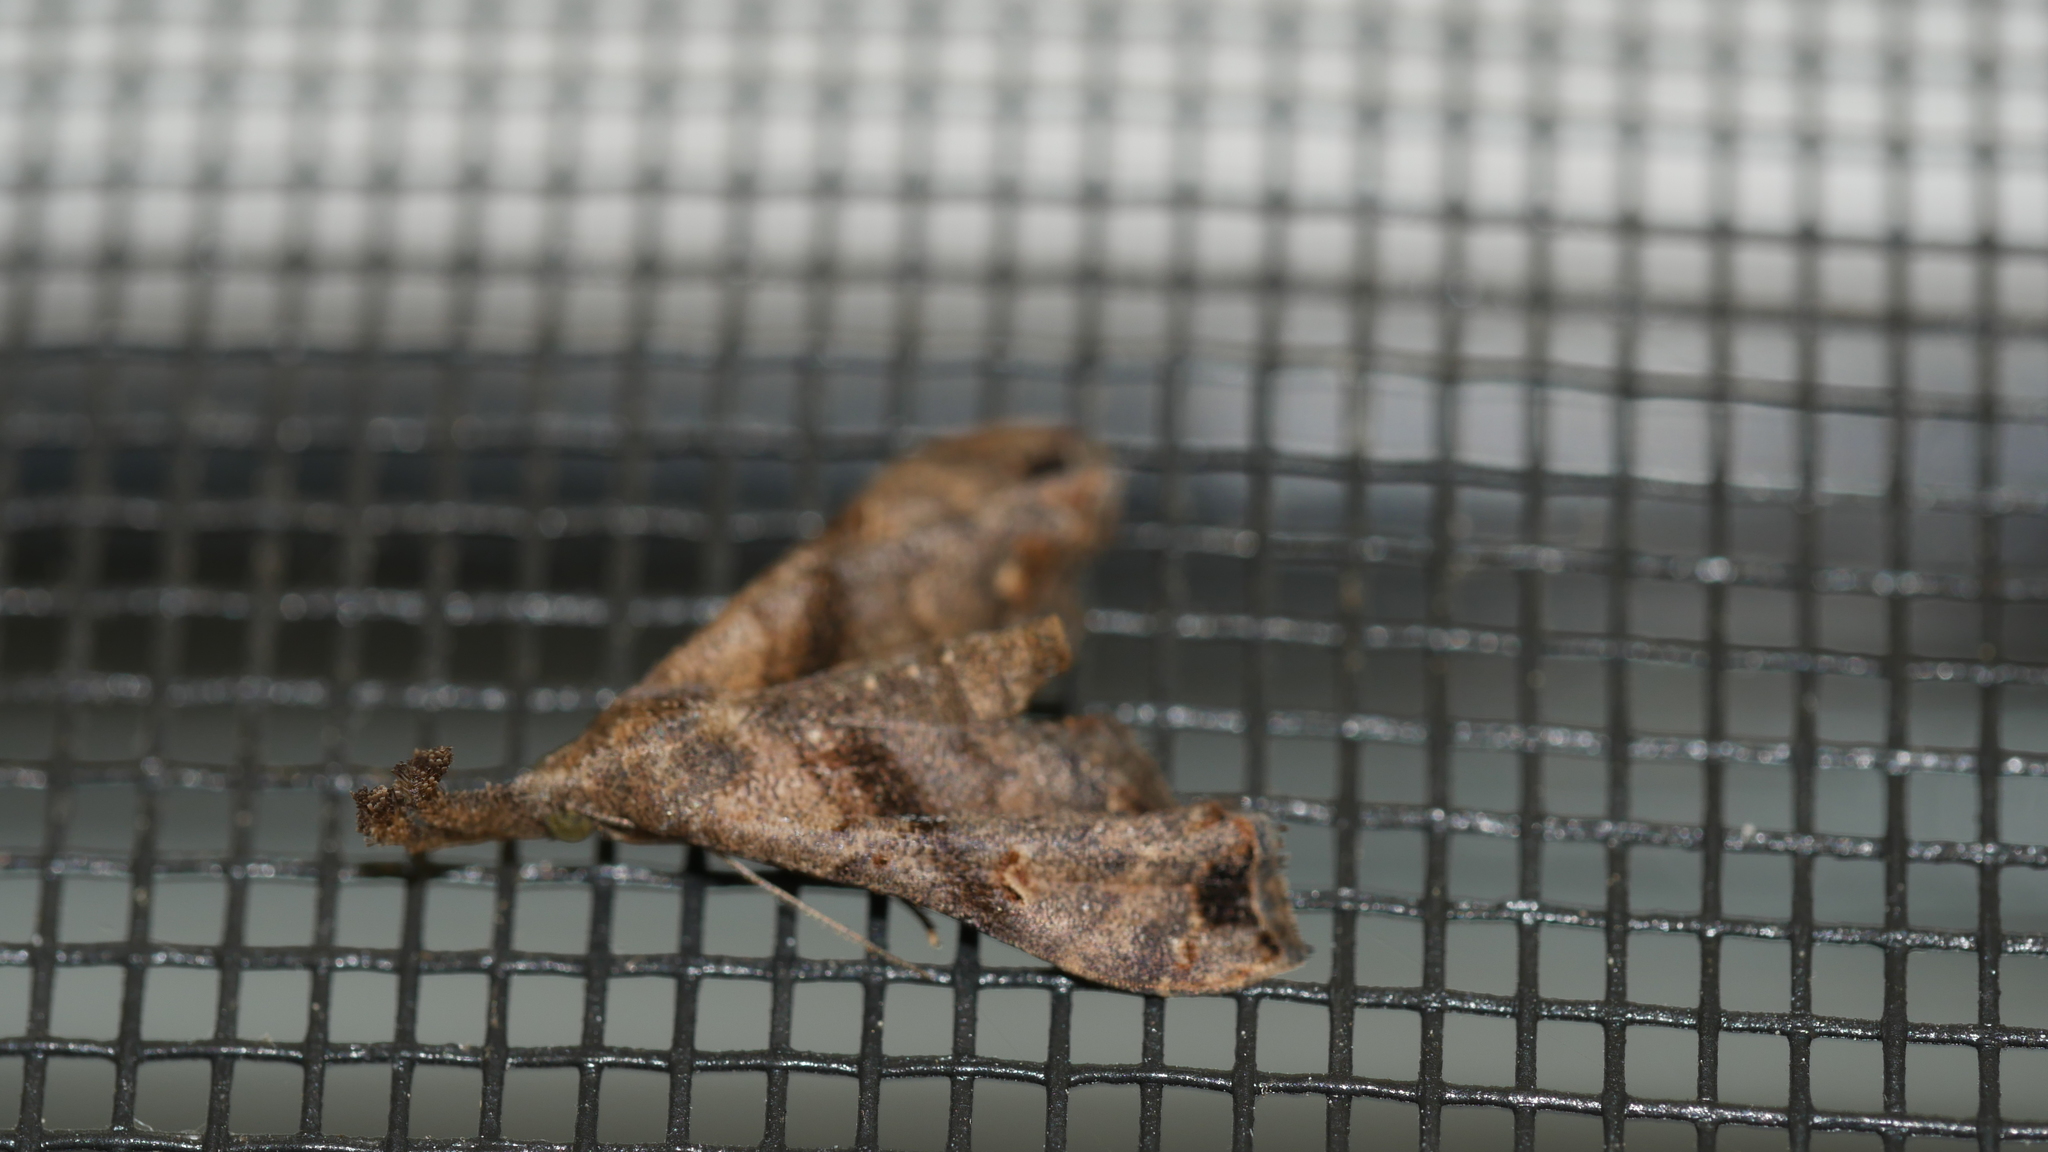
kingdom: Animalia
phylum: Arthropoda
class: Insecta
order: Lepidoptera
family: Erebidae
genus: Palthis
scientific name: Palthis asopialis
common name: Faint-spotted palthis moth
